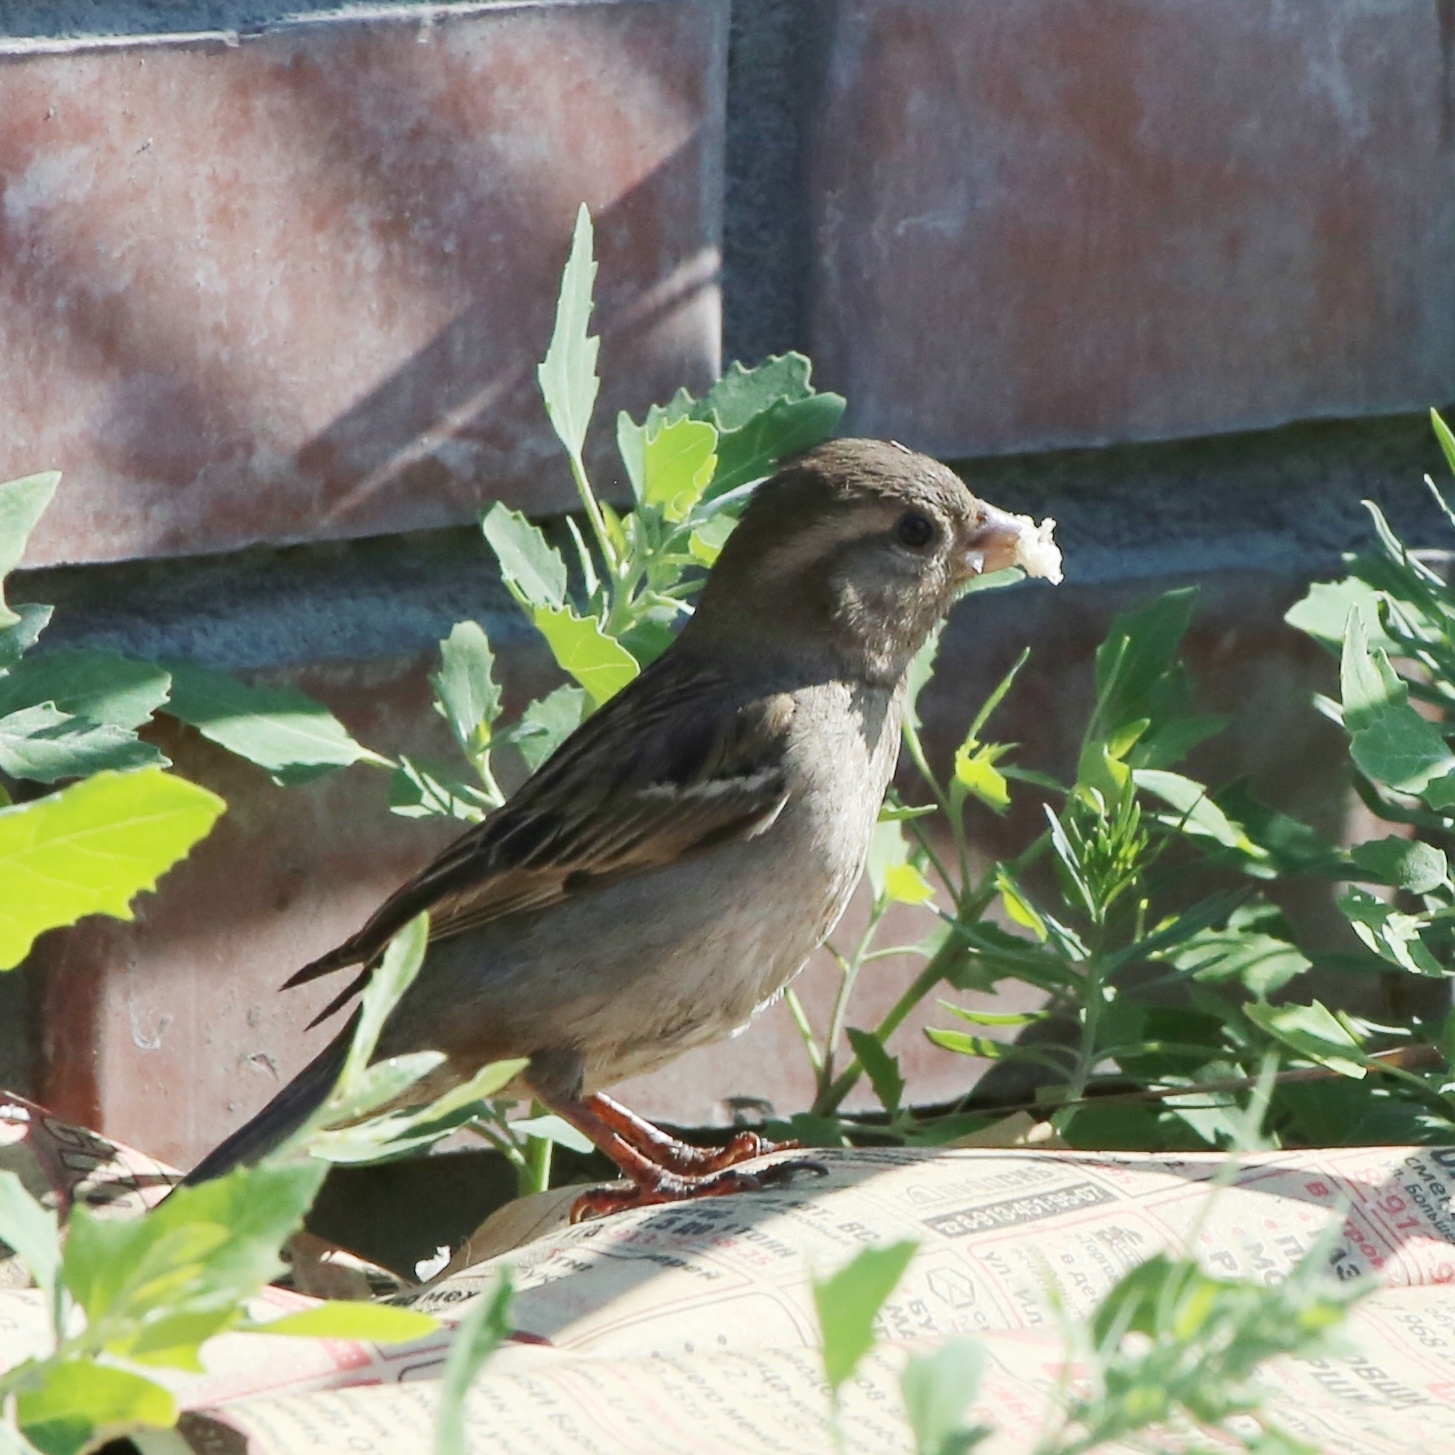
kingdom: Animalia
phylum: Chordata
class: Aves
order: Passeriformes
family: Passeridae
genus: Passer
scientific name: Passer domesticus
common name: House sparrow
